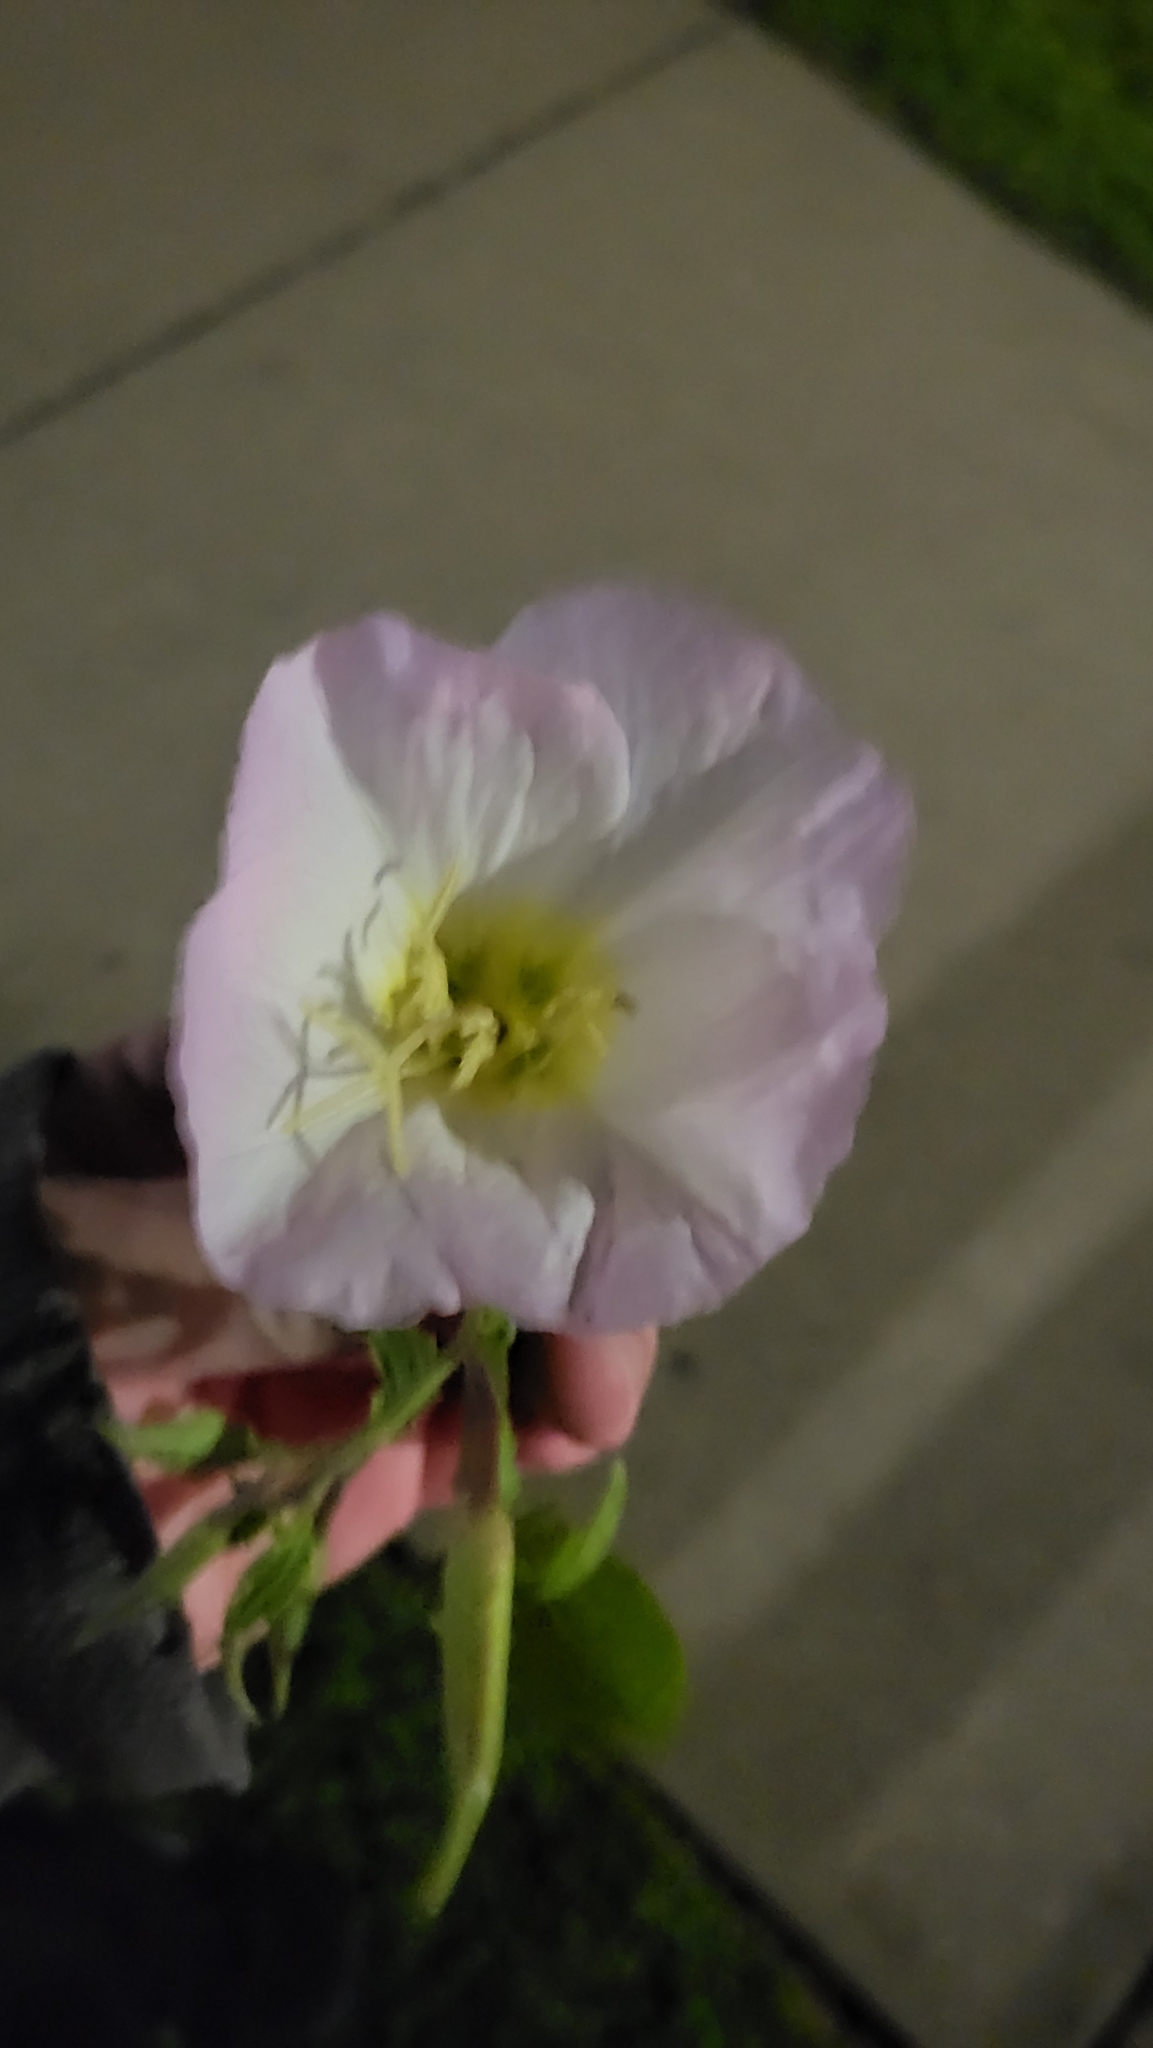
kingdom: Plantae
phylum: Tracheophyta
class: Magnoliopsida
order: Myrtales
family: Onagraceae
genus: Oenothera
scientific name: Oenothera speciosa
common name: White evening-primrose
